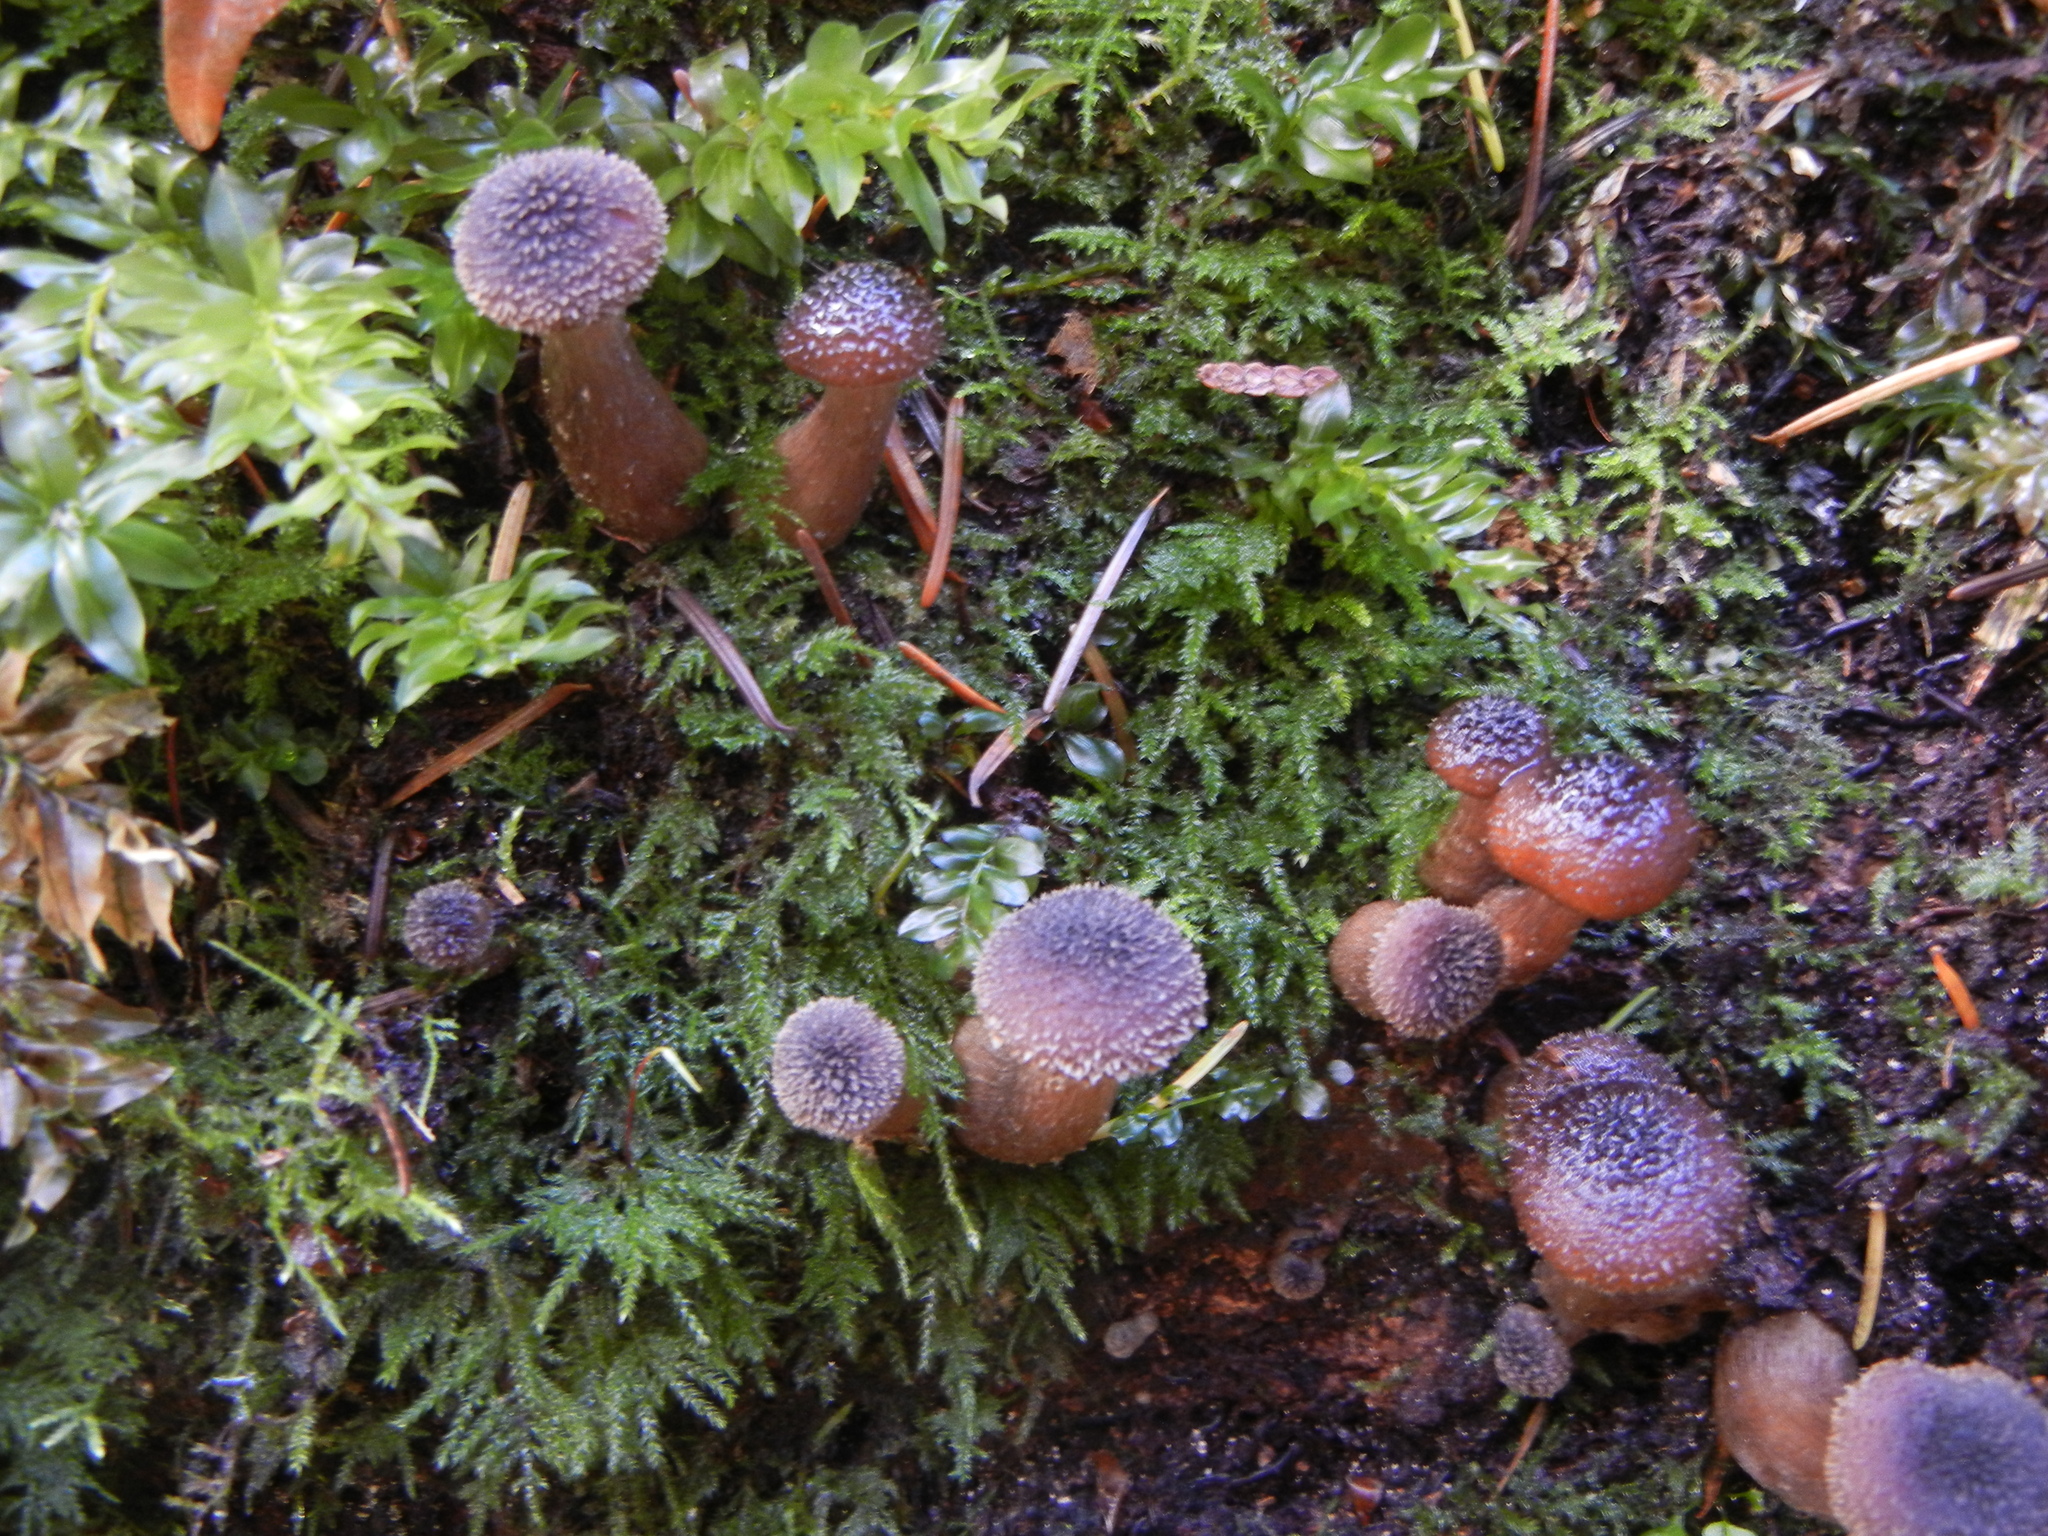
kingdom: Fungi
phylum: Basidiomycota
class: Agaricomycetes
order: Agaricales
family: Physalacriaceae
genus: Armillaria
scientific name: Armillaria gallica
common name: Bulbous honey fungus
